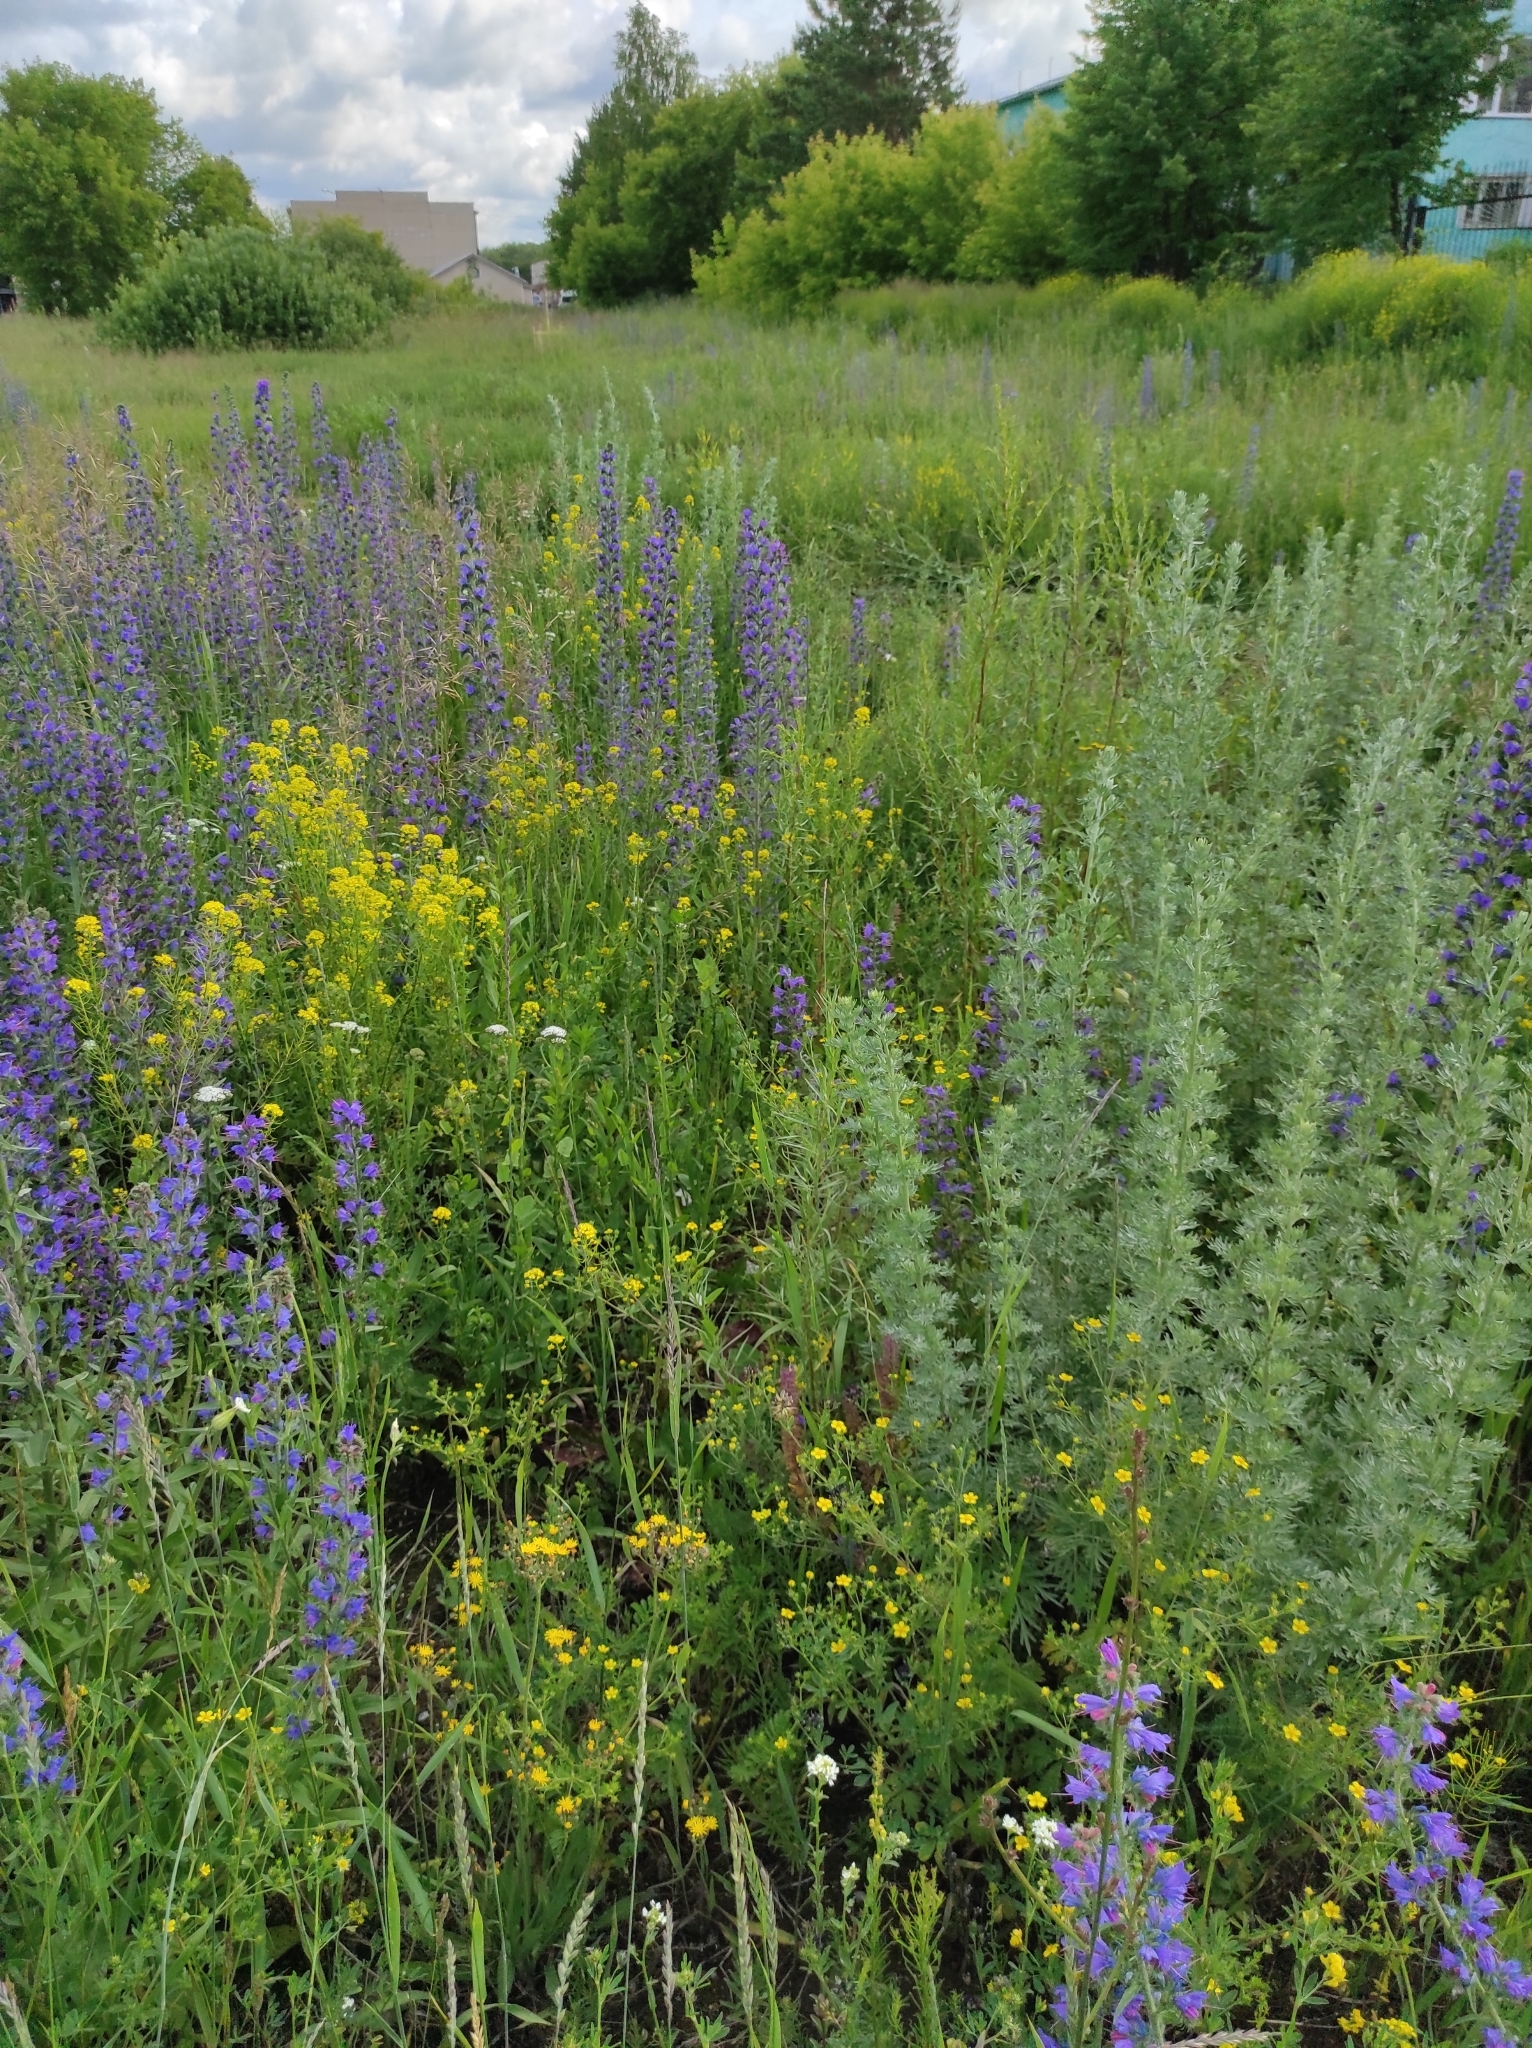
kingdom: Plantae
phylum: Tracheophyta
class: Magnoliopsida
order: Boraginales
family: Boraginaceae
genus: Echium
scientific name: Echium vulgare
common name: Common viper's bugloss
